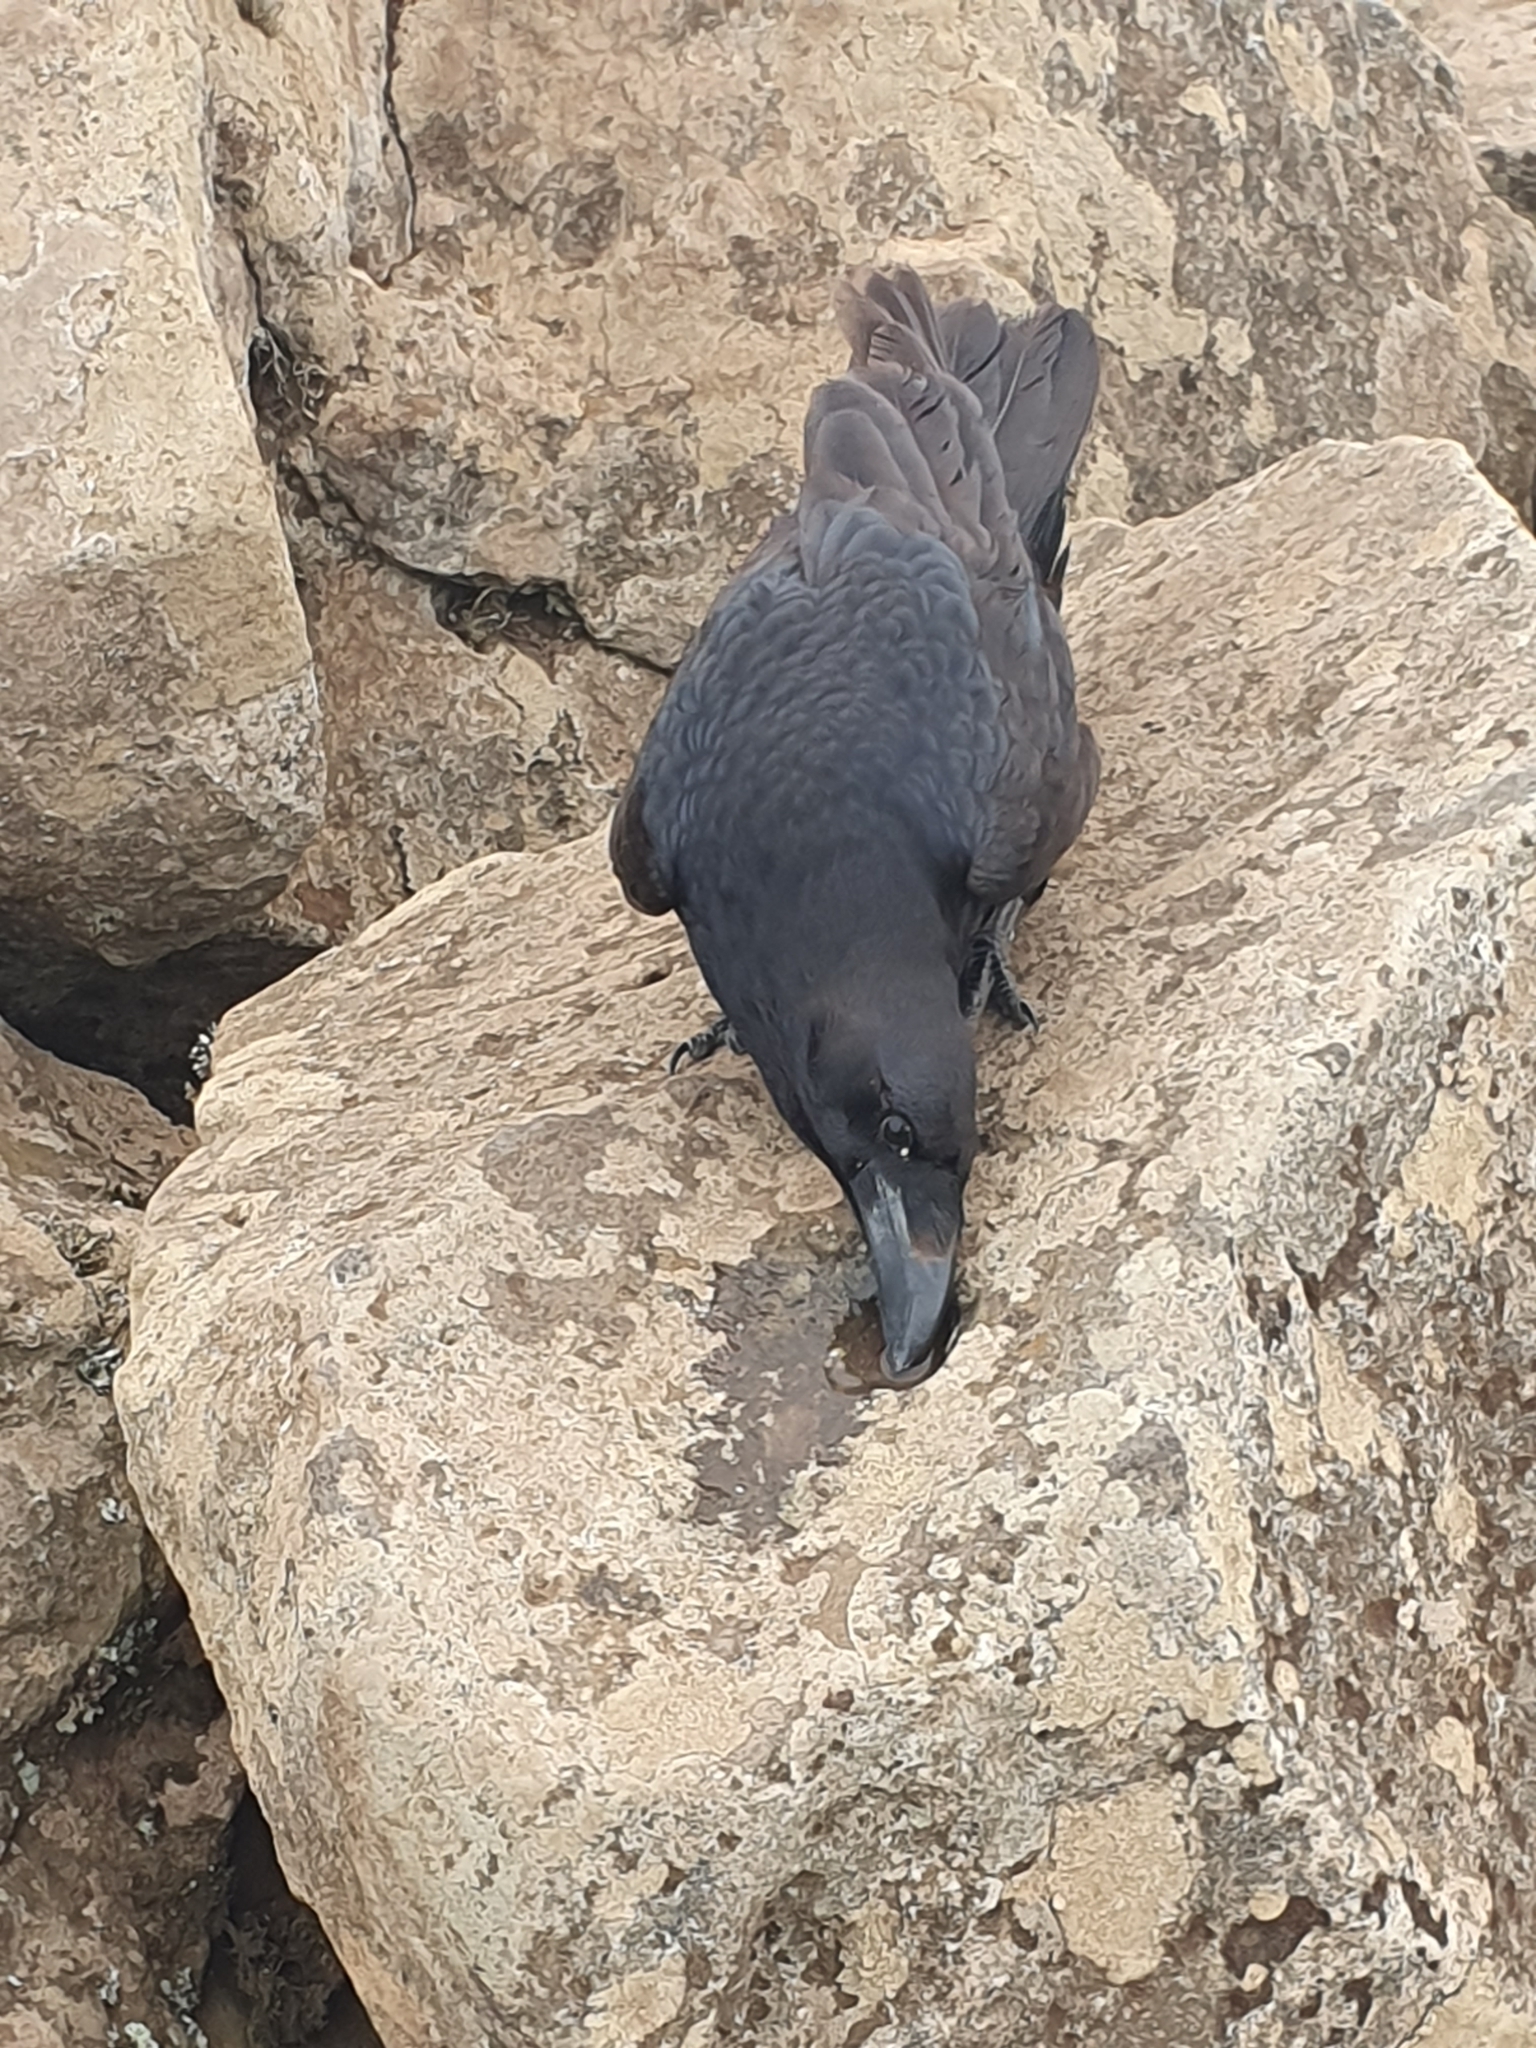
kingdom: Animalia
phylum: Chordata
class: Aves
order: Passeriformes
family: Corvidae
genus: Corvus
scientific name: Corvus corax
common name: Common raven
